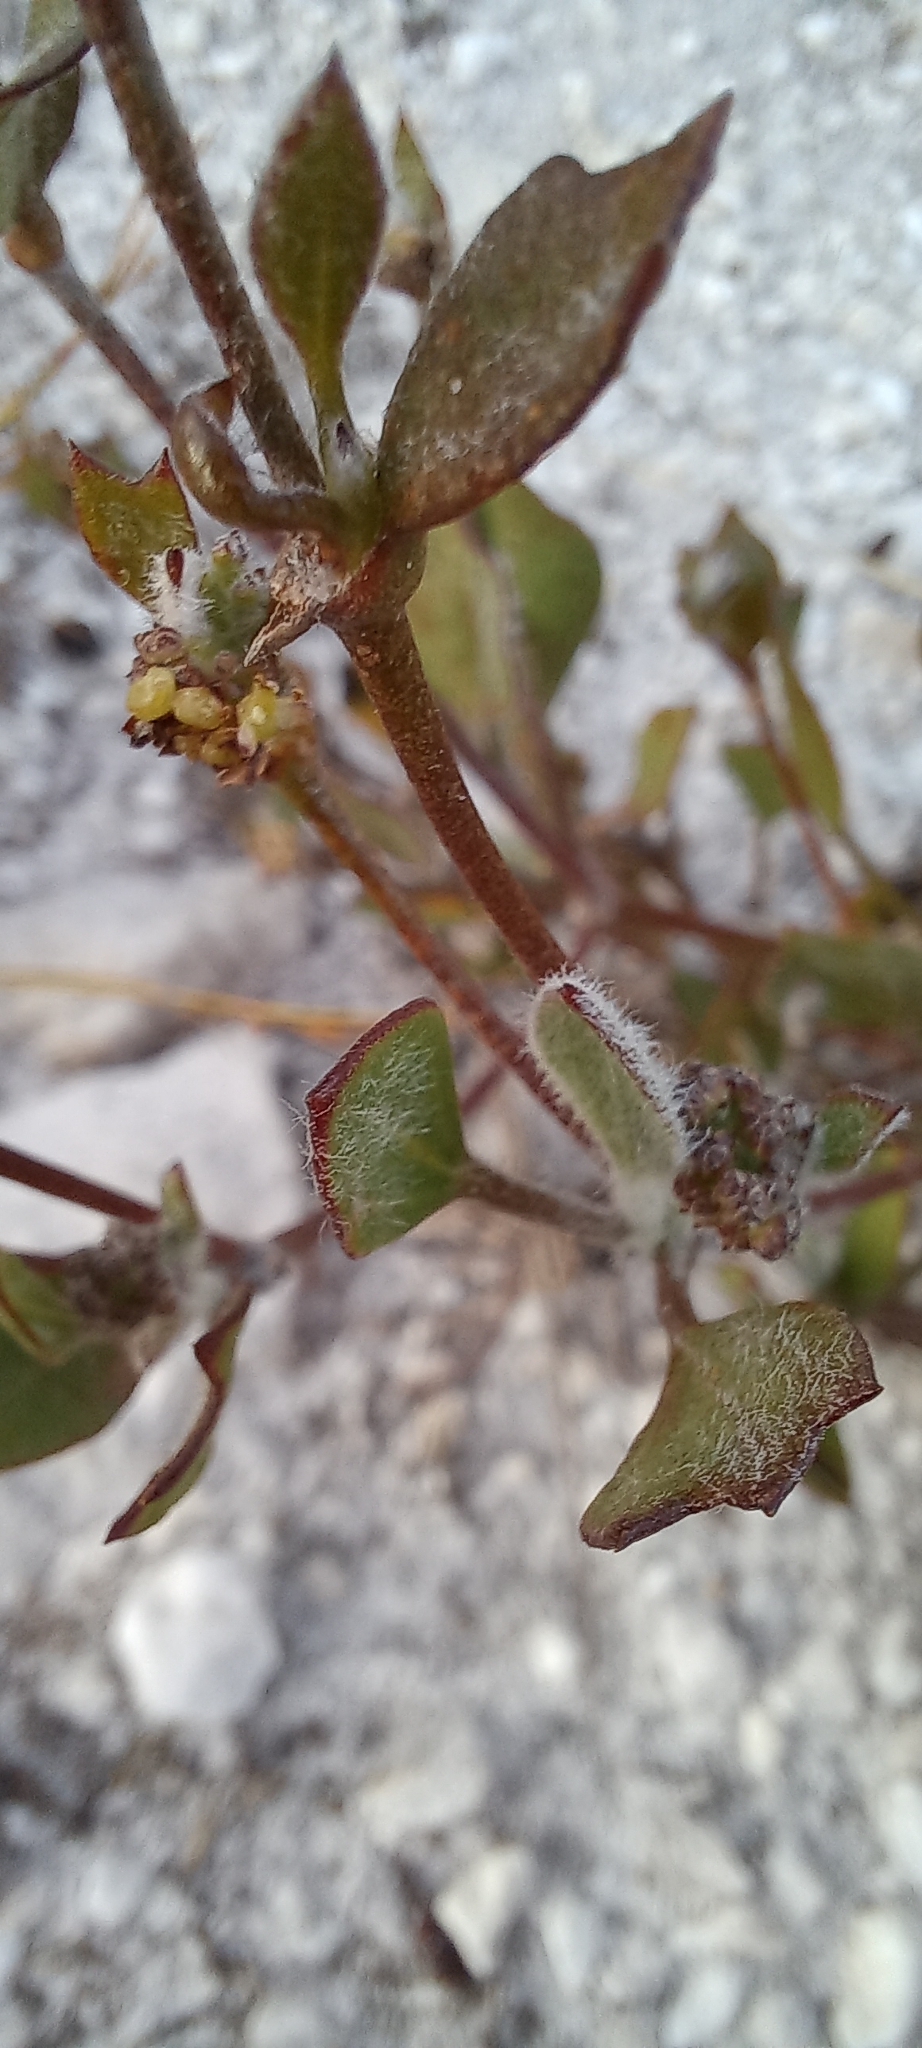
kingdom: Plantae
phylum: Tracheophyta
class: Magnoliopsida
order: Apiales
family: Apiaceae
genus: Centella
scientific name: Centella difformis
